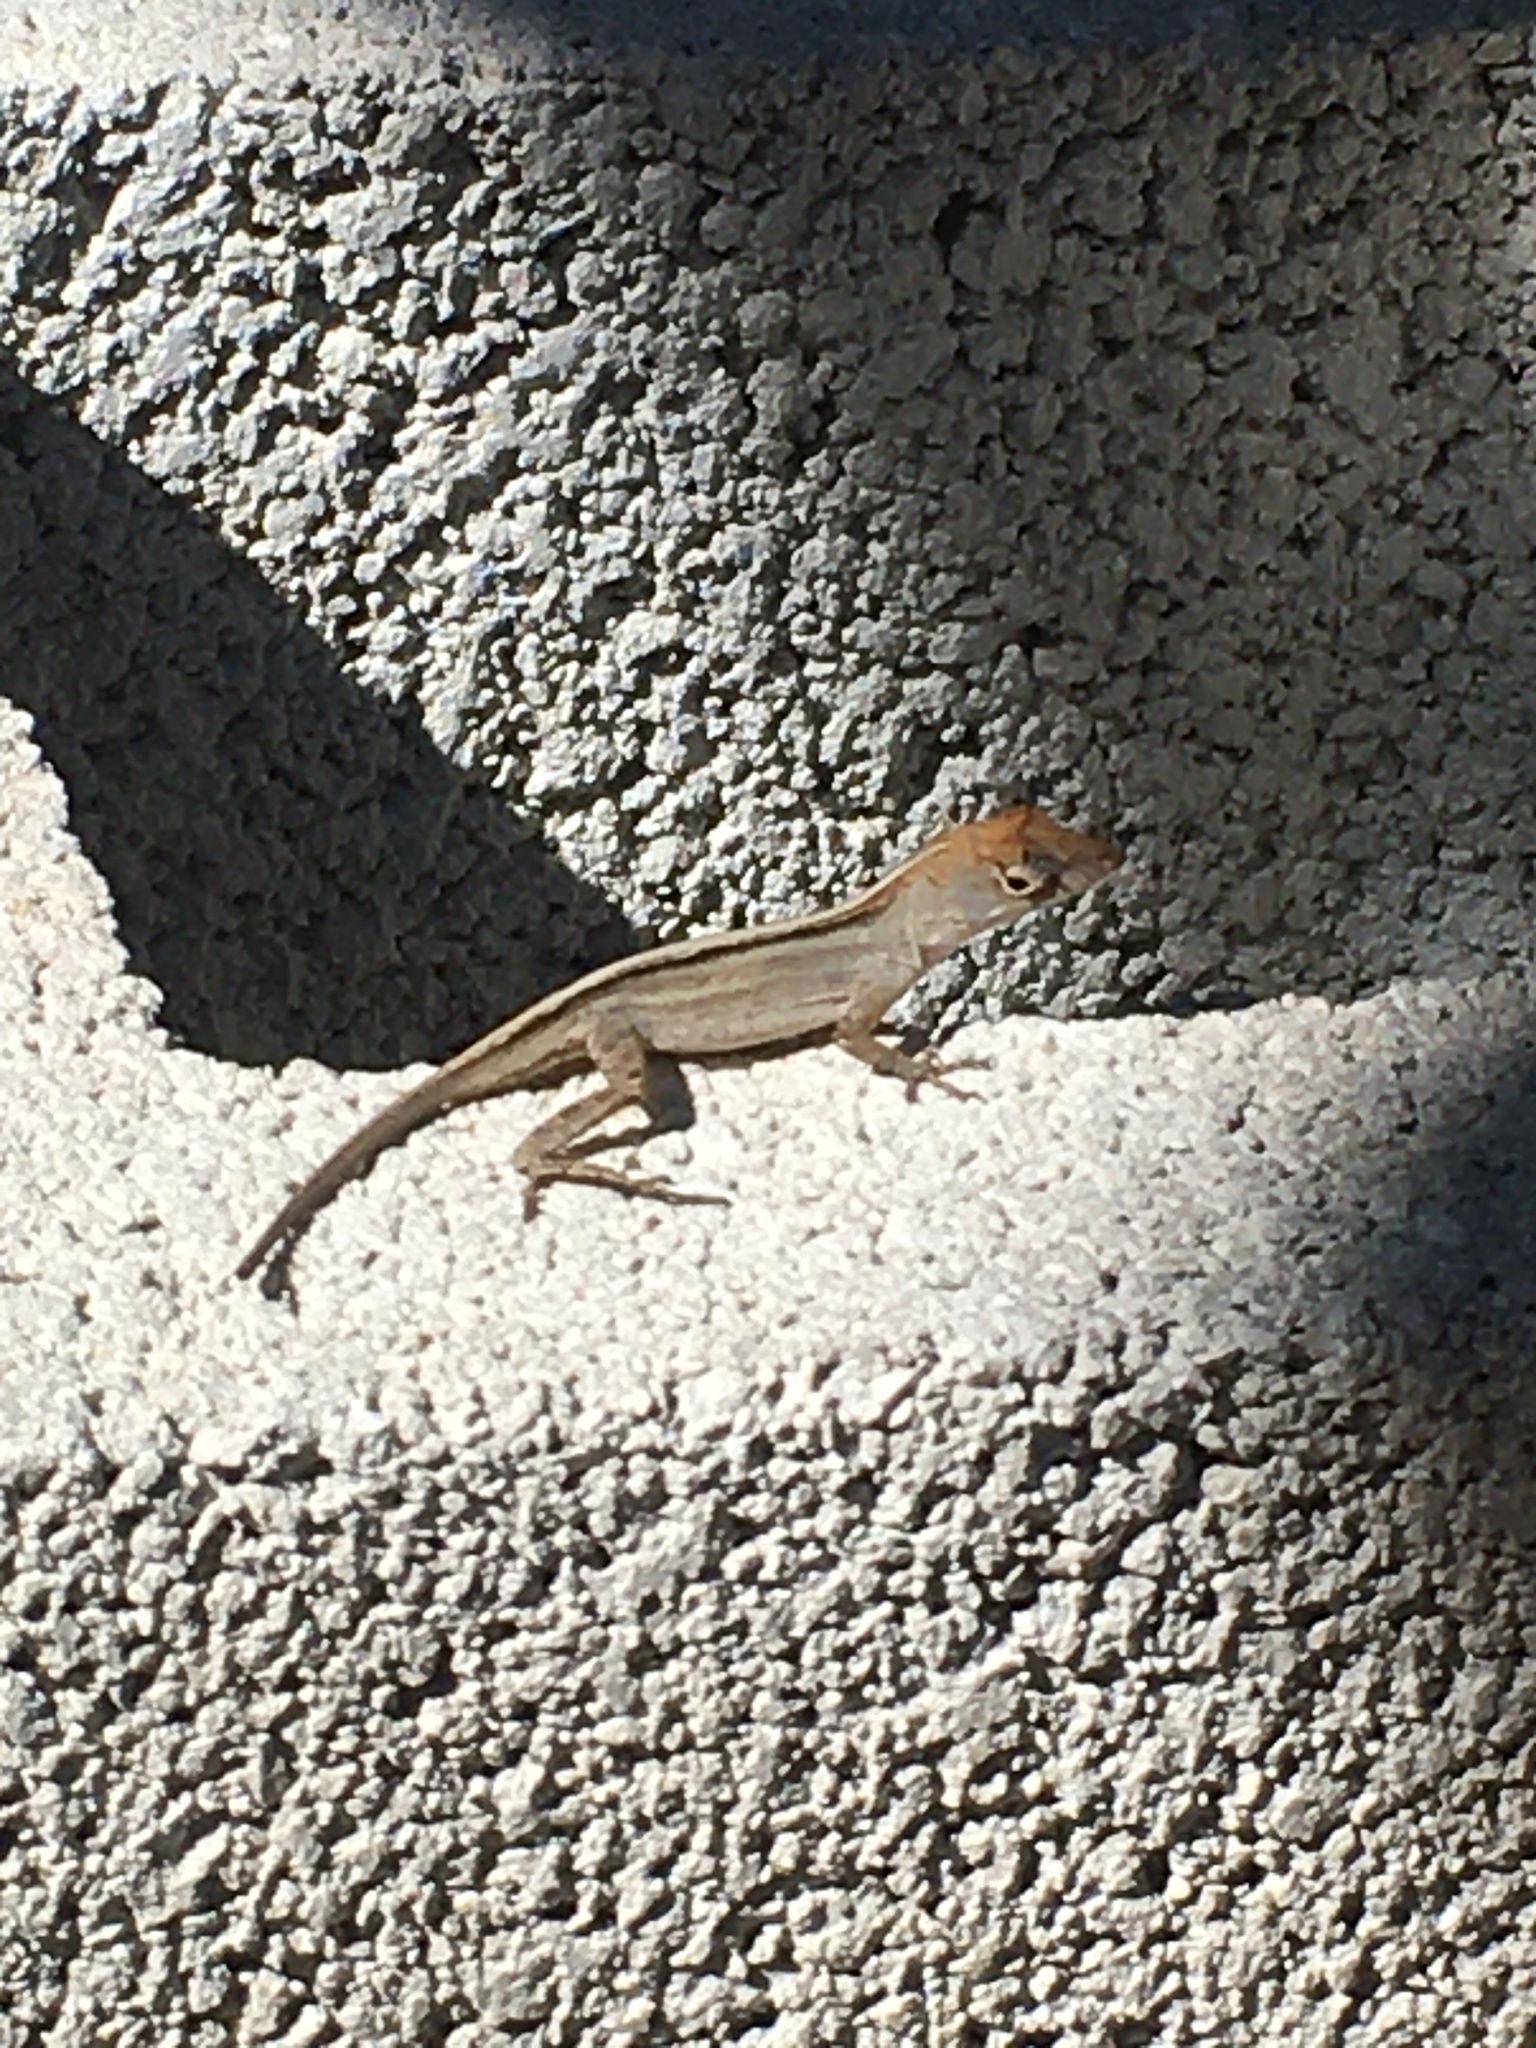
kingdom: Animalia
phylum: Chordata
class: Squamata
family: Dactyloidae
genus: Anolis
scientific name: Anolis sagrei
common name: Brown anole
